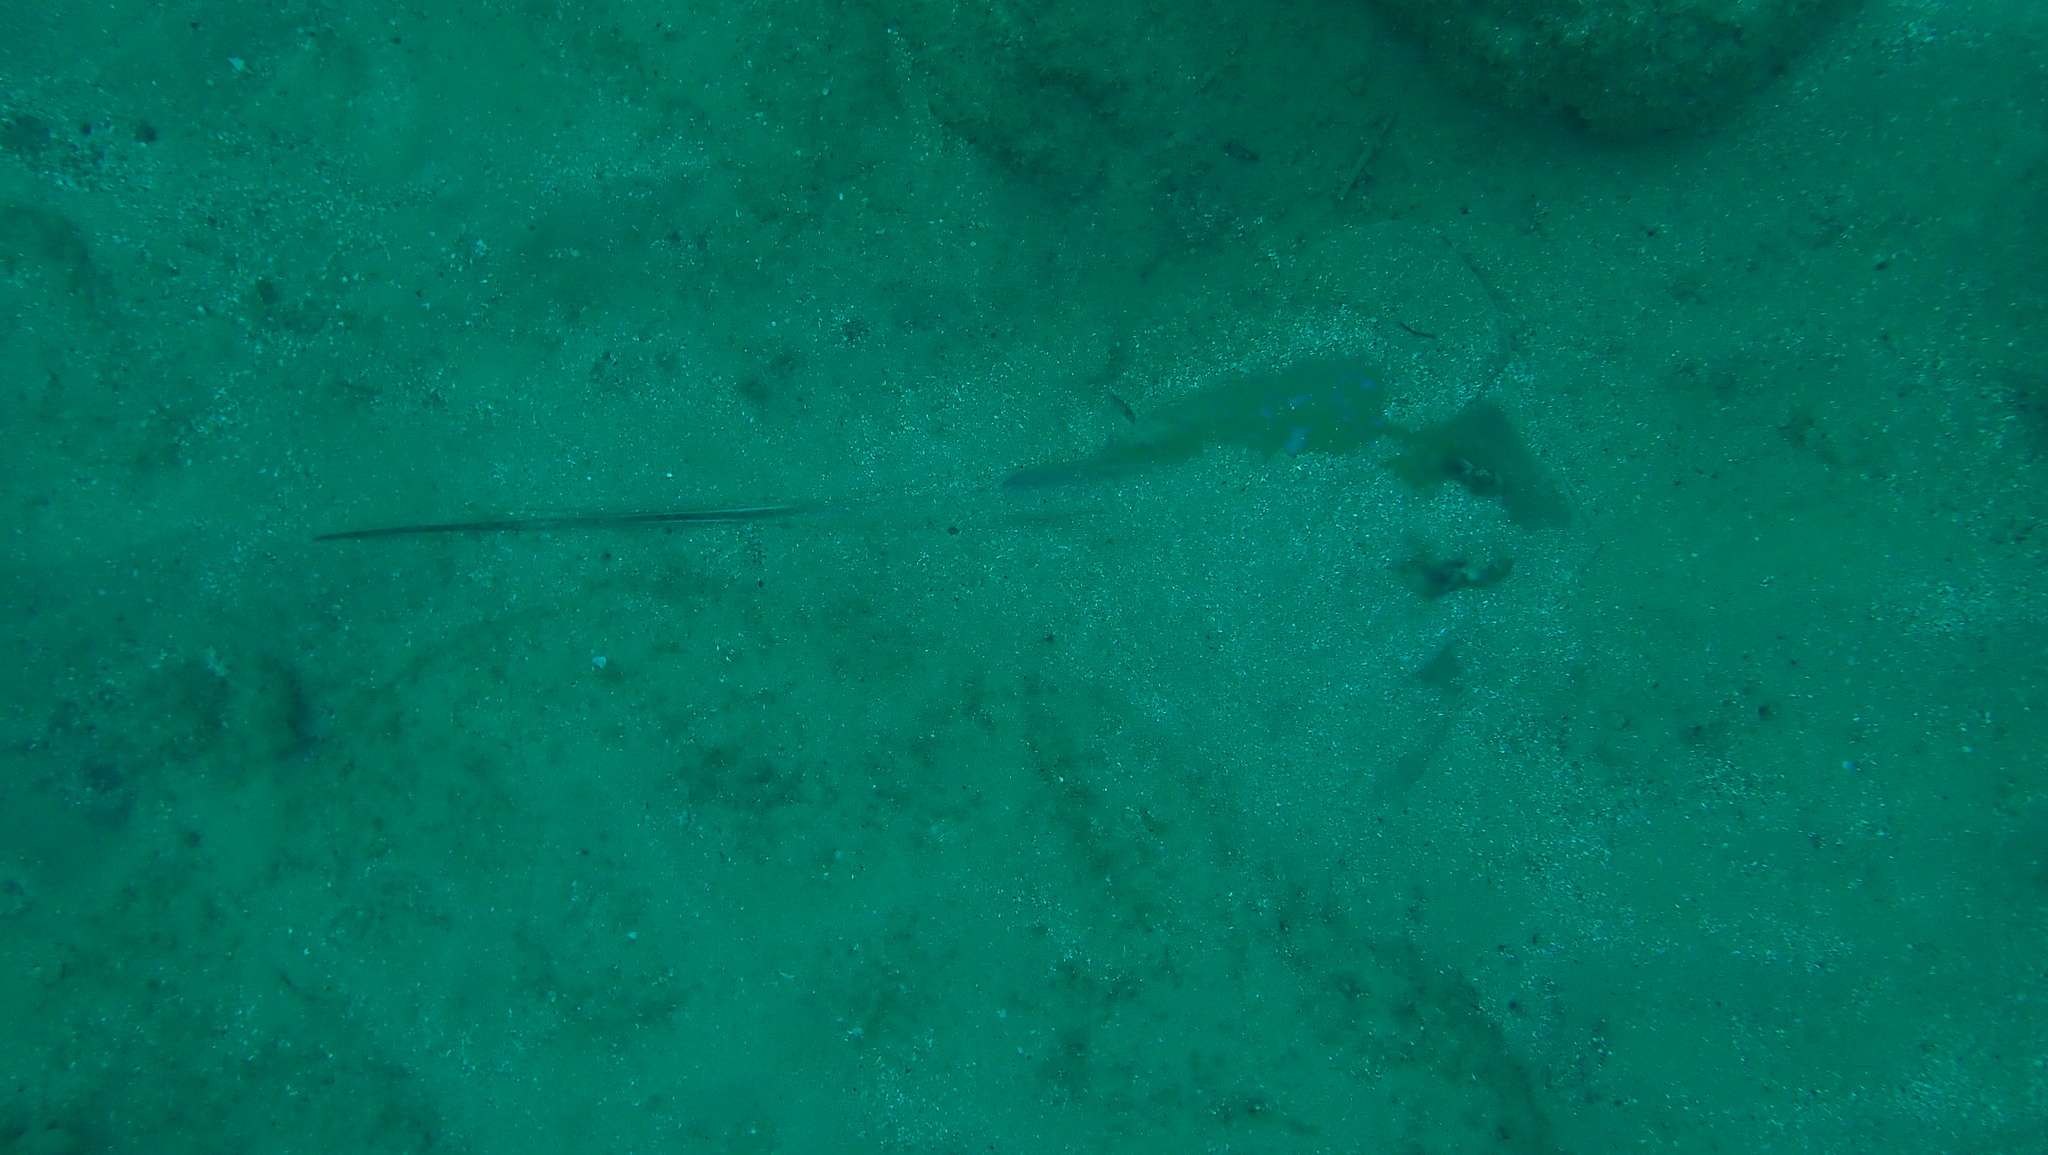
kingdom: Animalia
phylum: Chordata
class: Elasmobranchii
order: Myliobatiformes
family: Dasyatidae
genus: Dasyatis
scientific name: Dasyatis marmorata
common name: Marbled stingray
